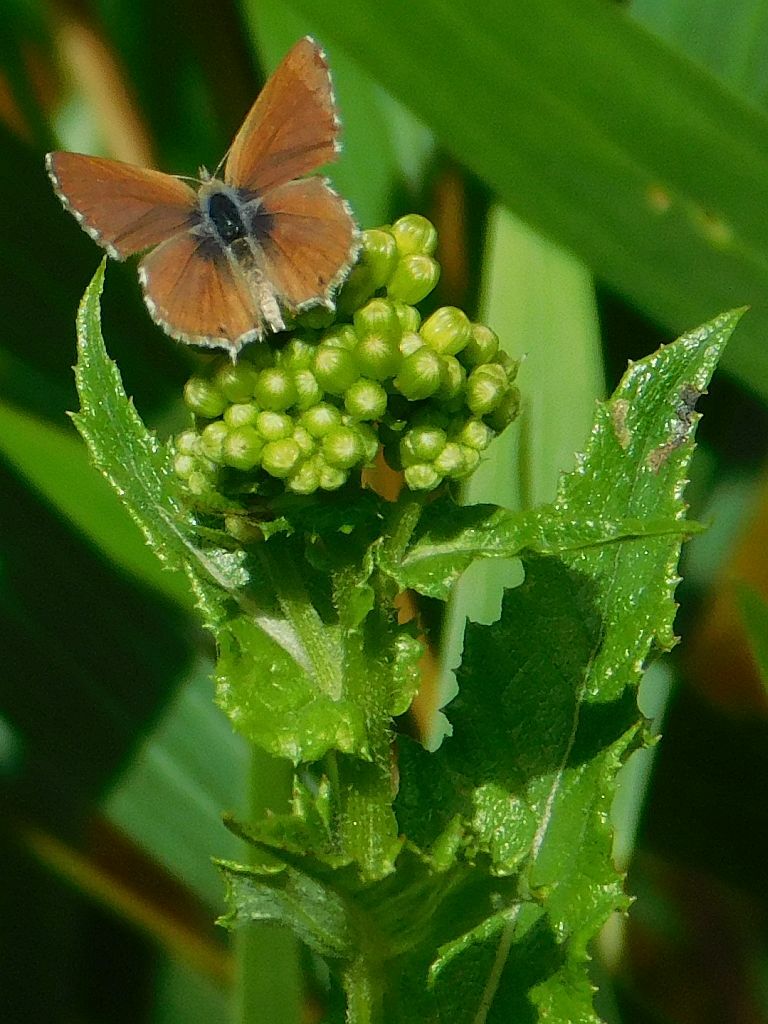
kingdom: Animalia
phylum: Arthropoda
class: Insecta
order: Lepidoptera
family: Lycaenidae
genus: Cacyreus
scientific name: Cacyreus fracta
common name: Water bronze
